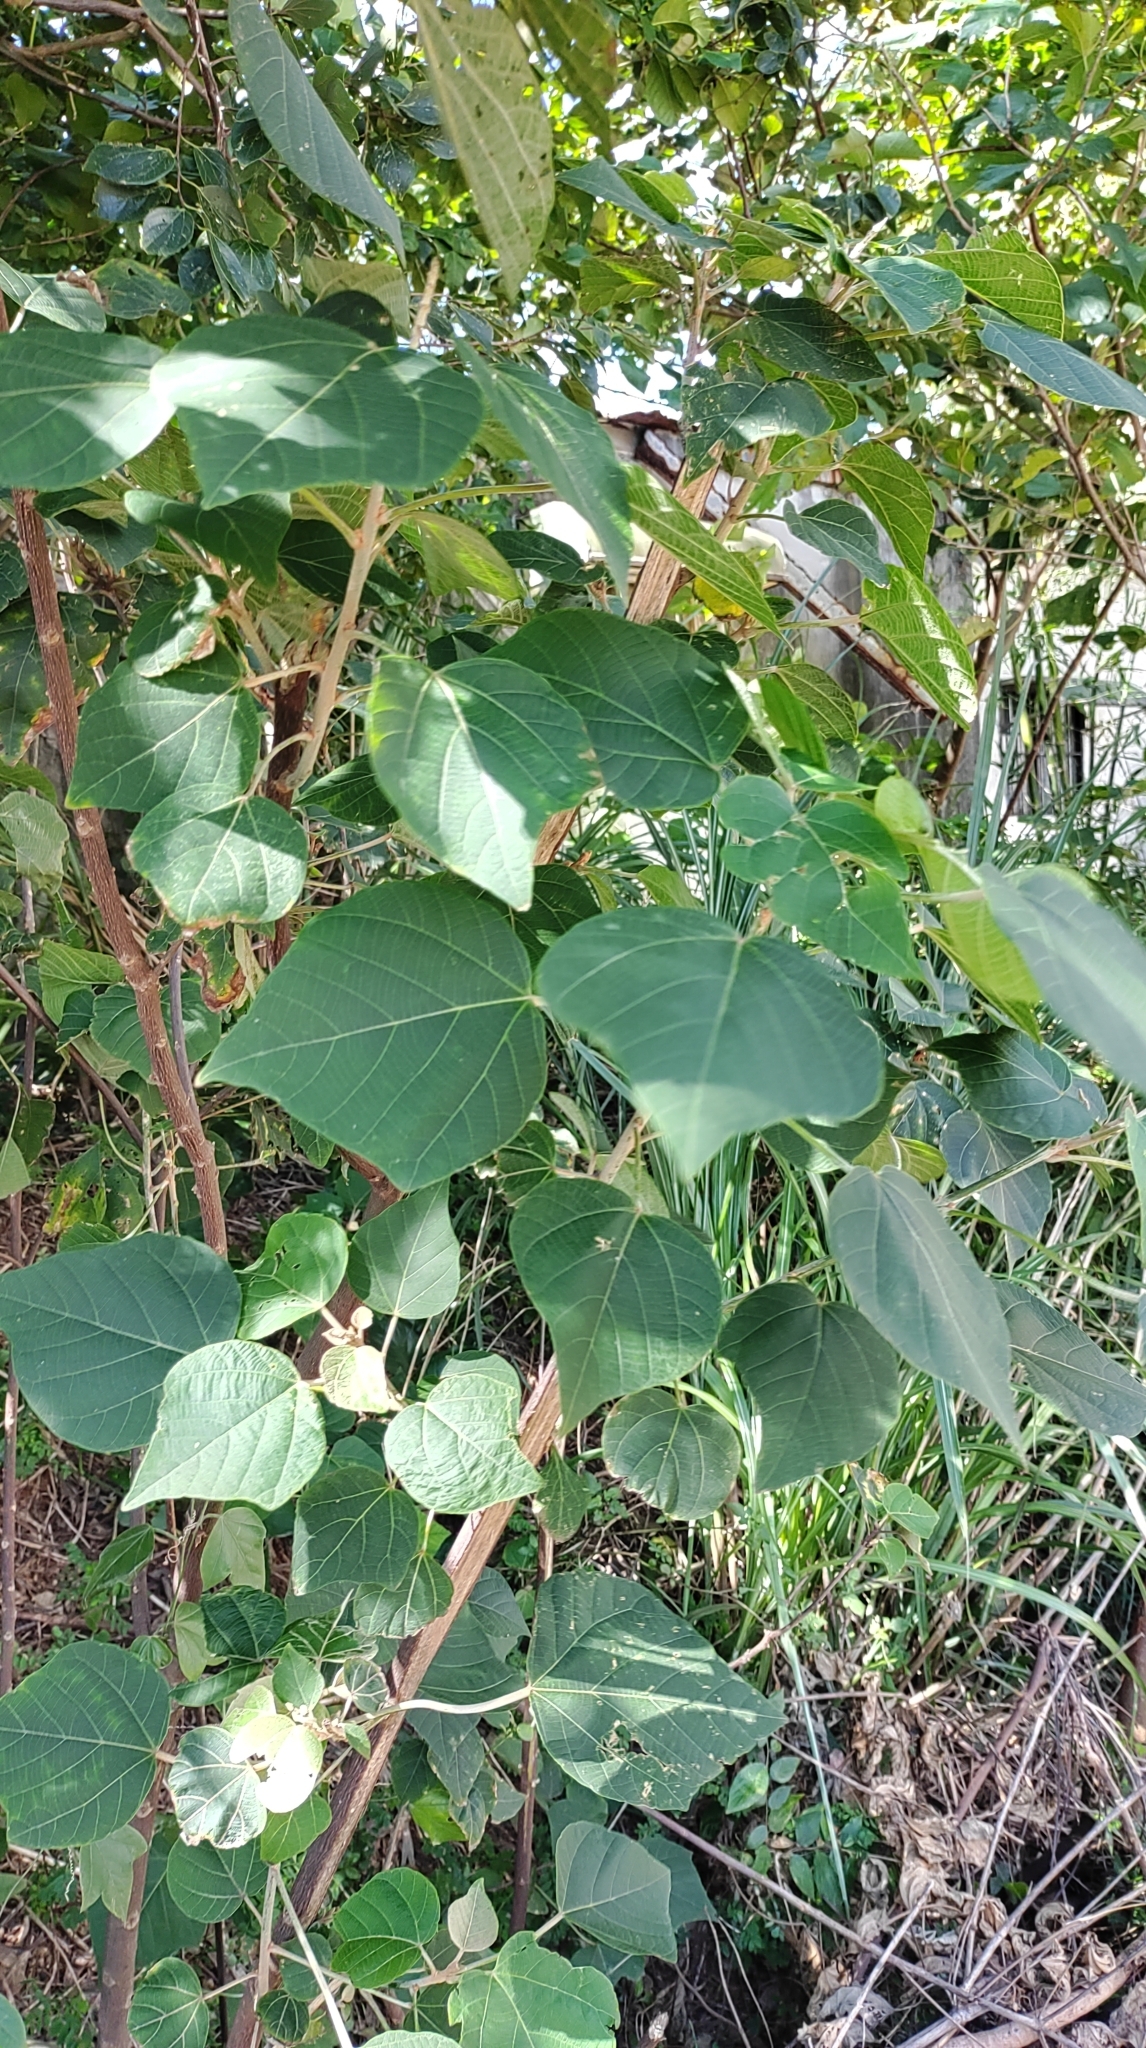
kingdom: Plantae
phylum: Tracheophyta
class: Magnoliopsida
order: Malpighiales
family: Euphorbiaceae
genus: Mallotus
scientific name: Mallotus japonicus
